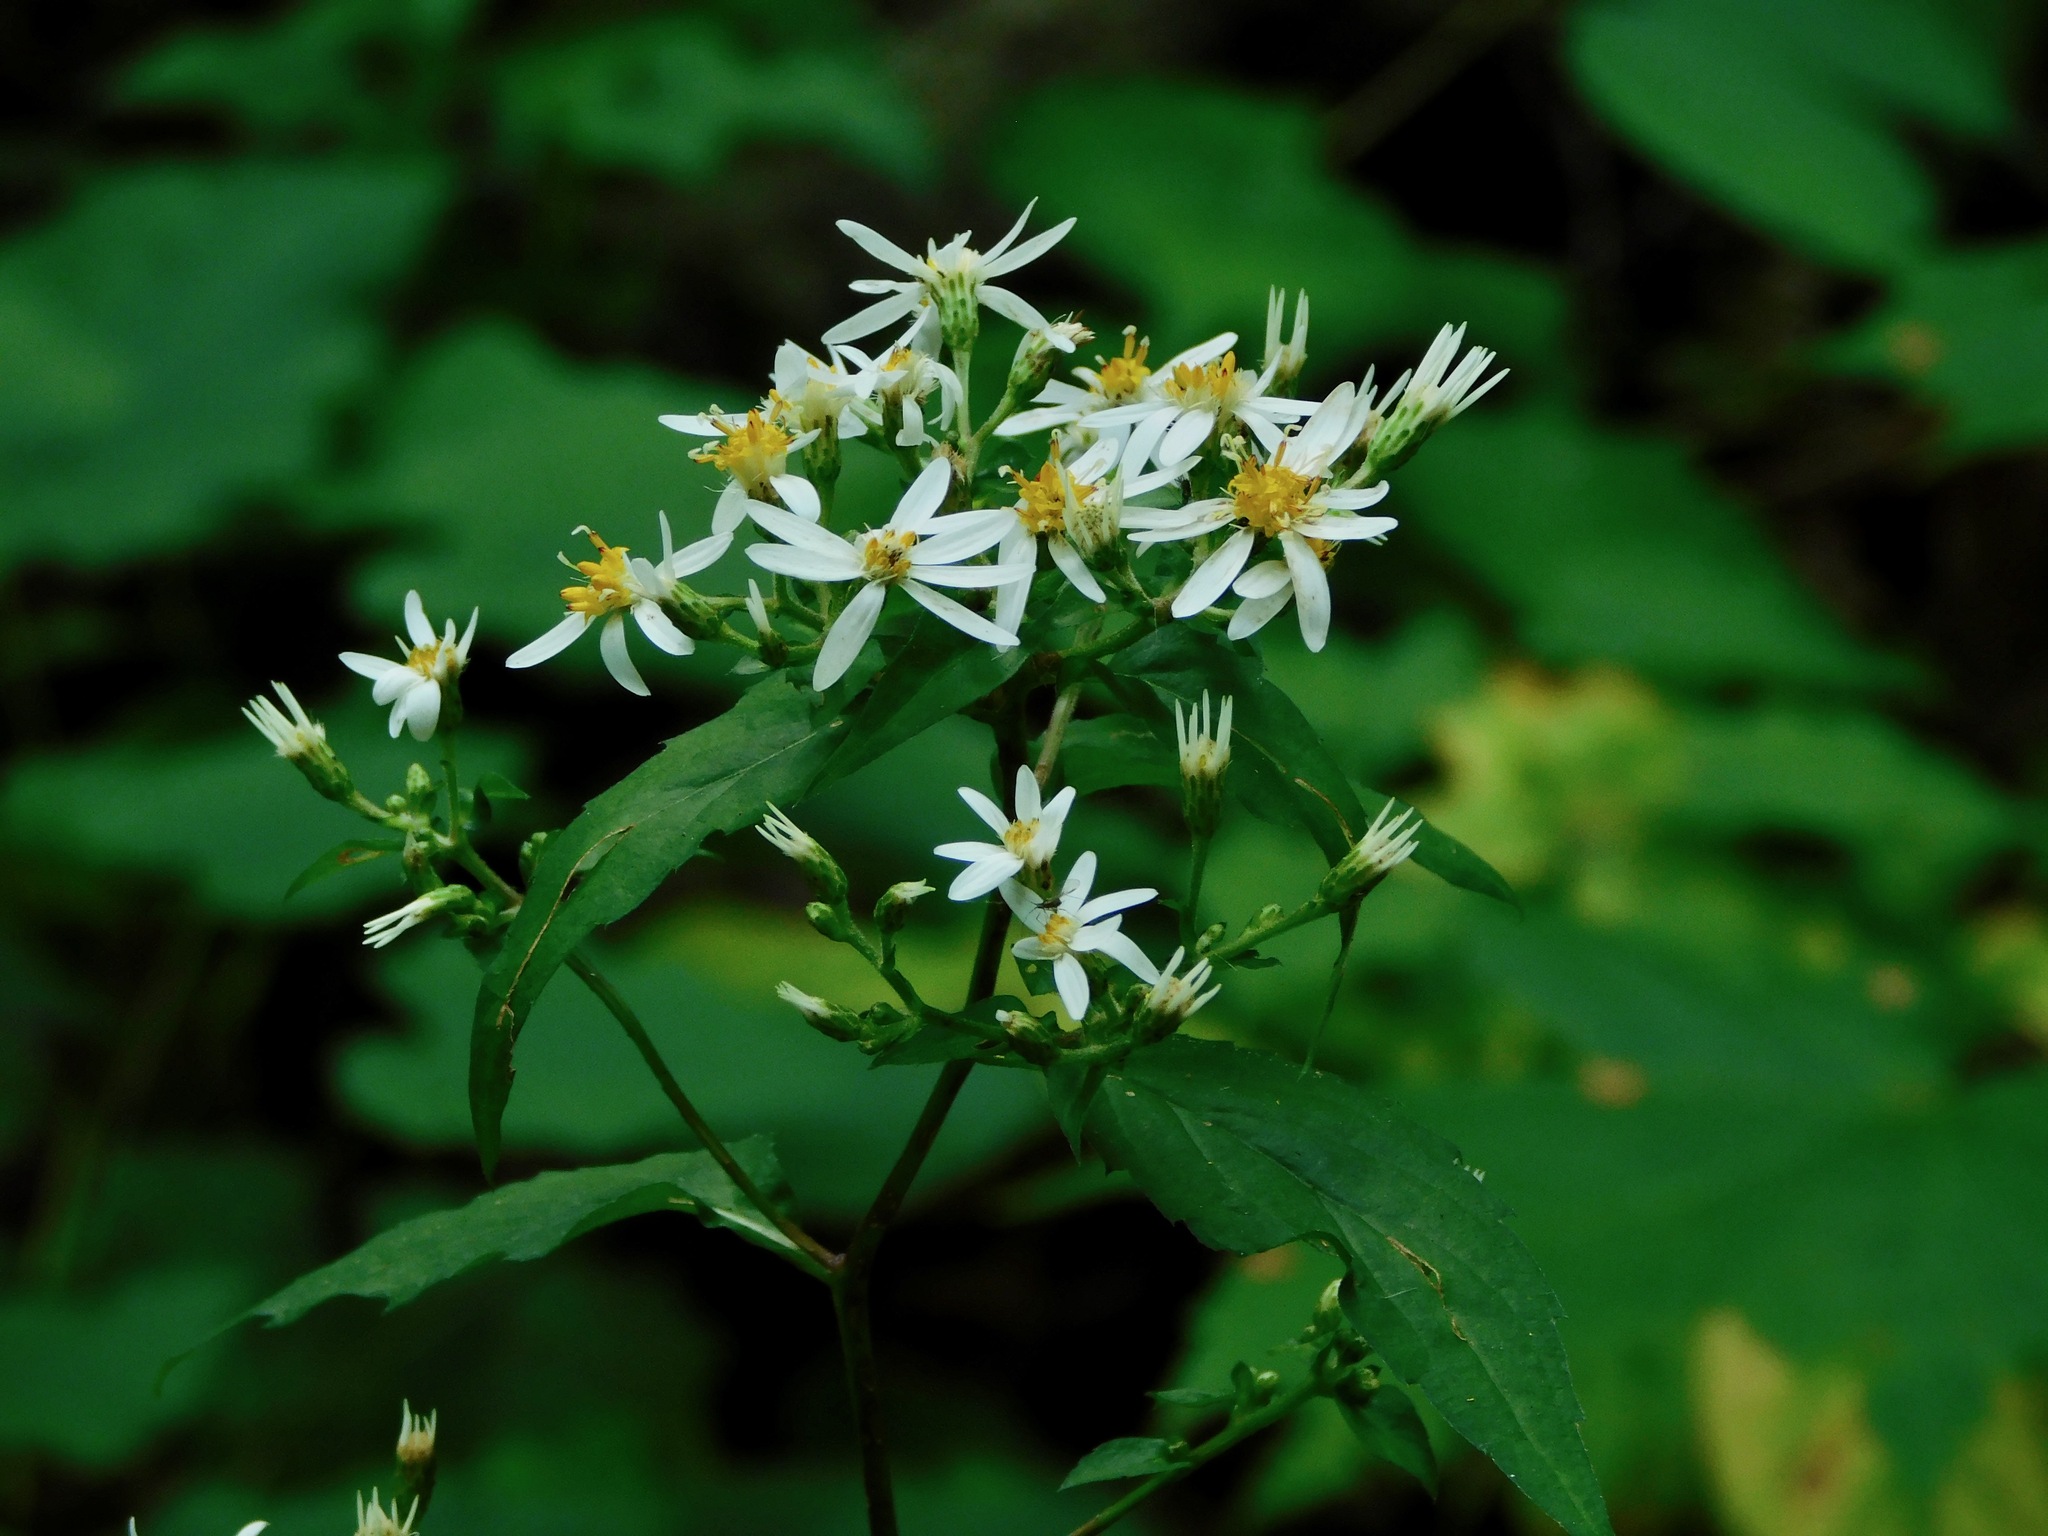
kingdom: Plantae
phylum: Tracheophyta
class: Magnoliopsida
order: Asterales
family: Asteraceae
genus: Eurybia
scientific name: Eurybia divaricata
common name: White wood aster
